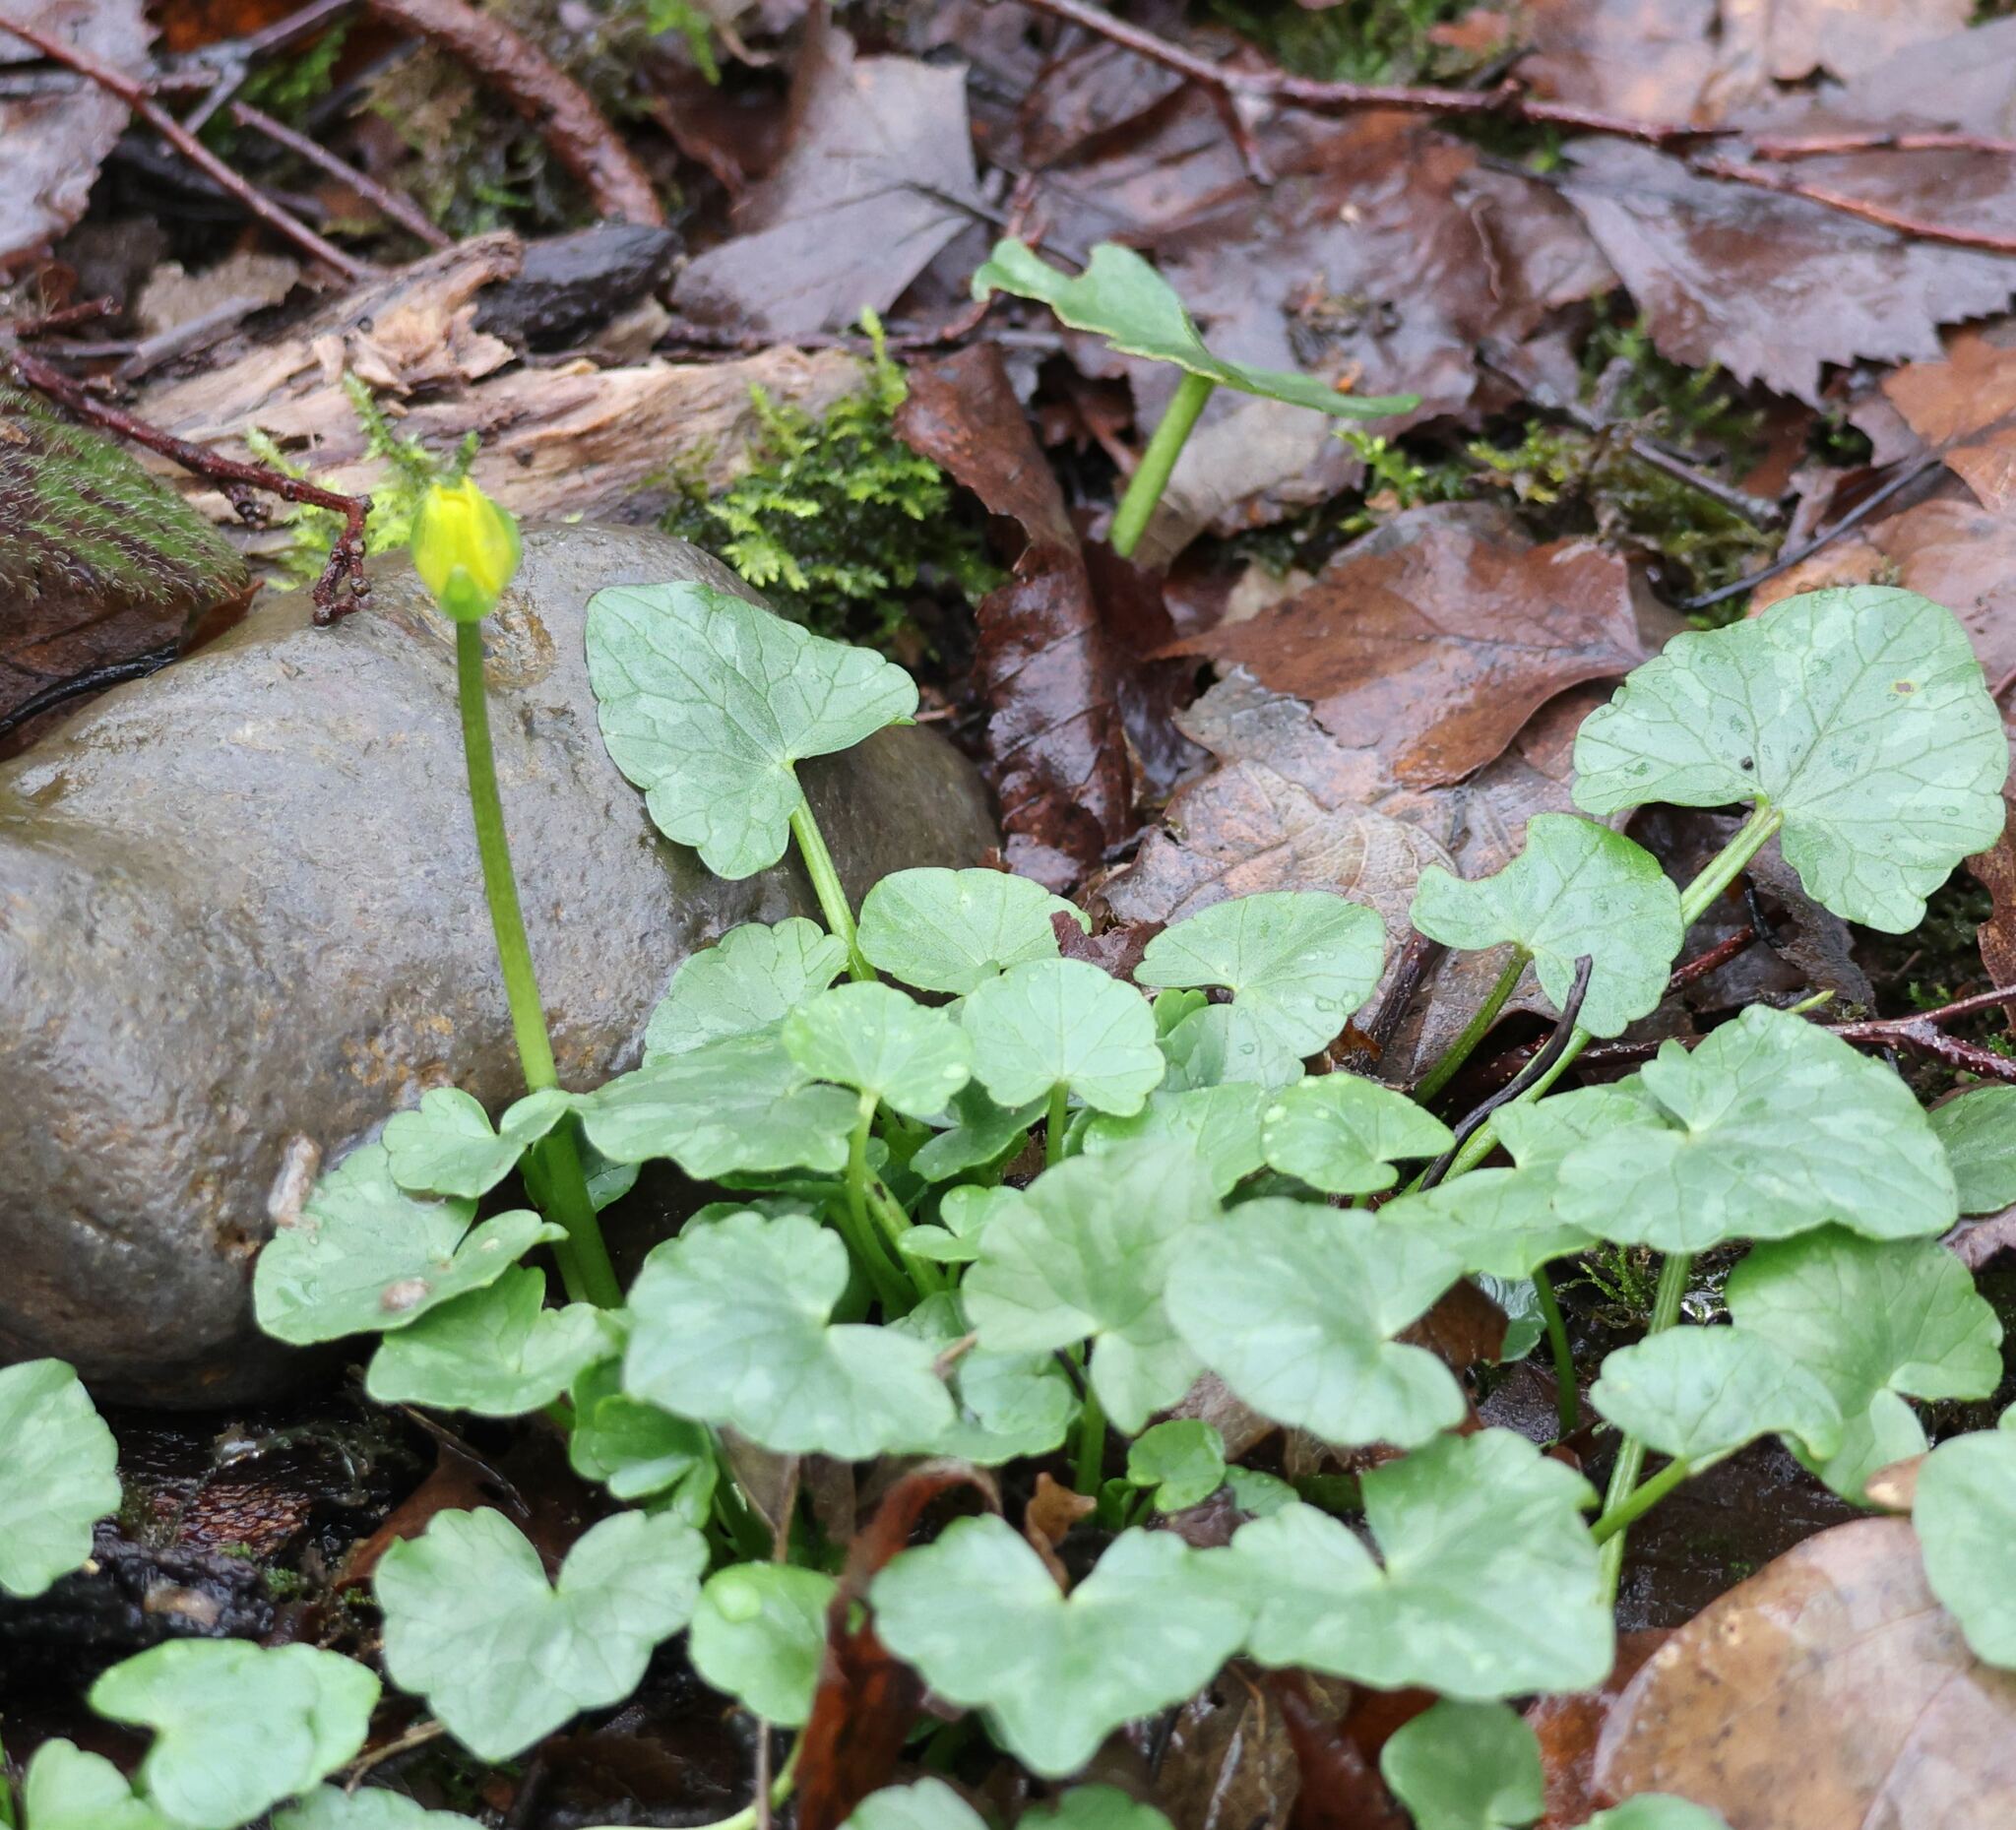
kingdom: Plantae
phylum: Tracheophyta
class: Magnoliopsida
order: Ranunculales
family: Ranunculaceae
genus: Ficaria
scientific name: Ficaria verna
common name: Lesser celandine
